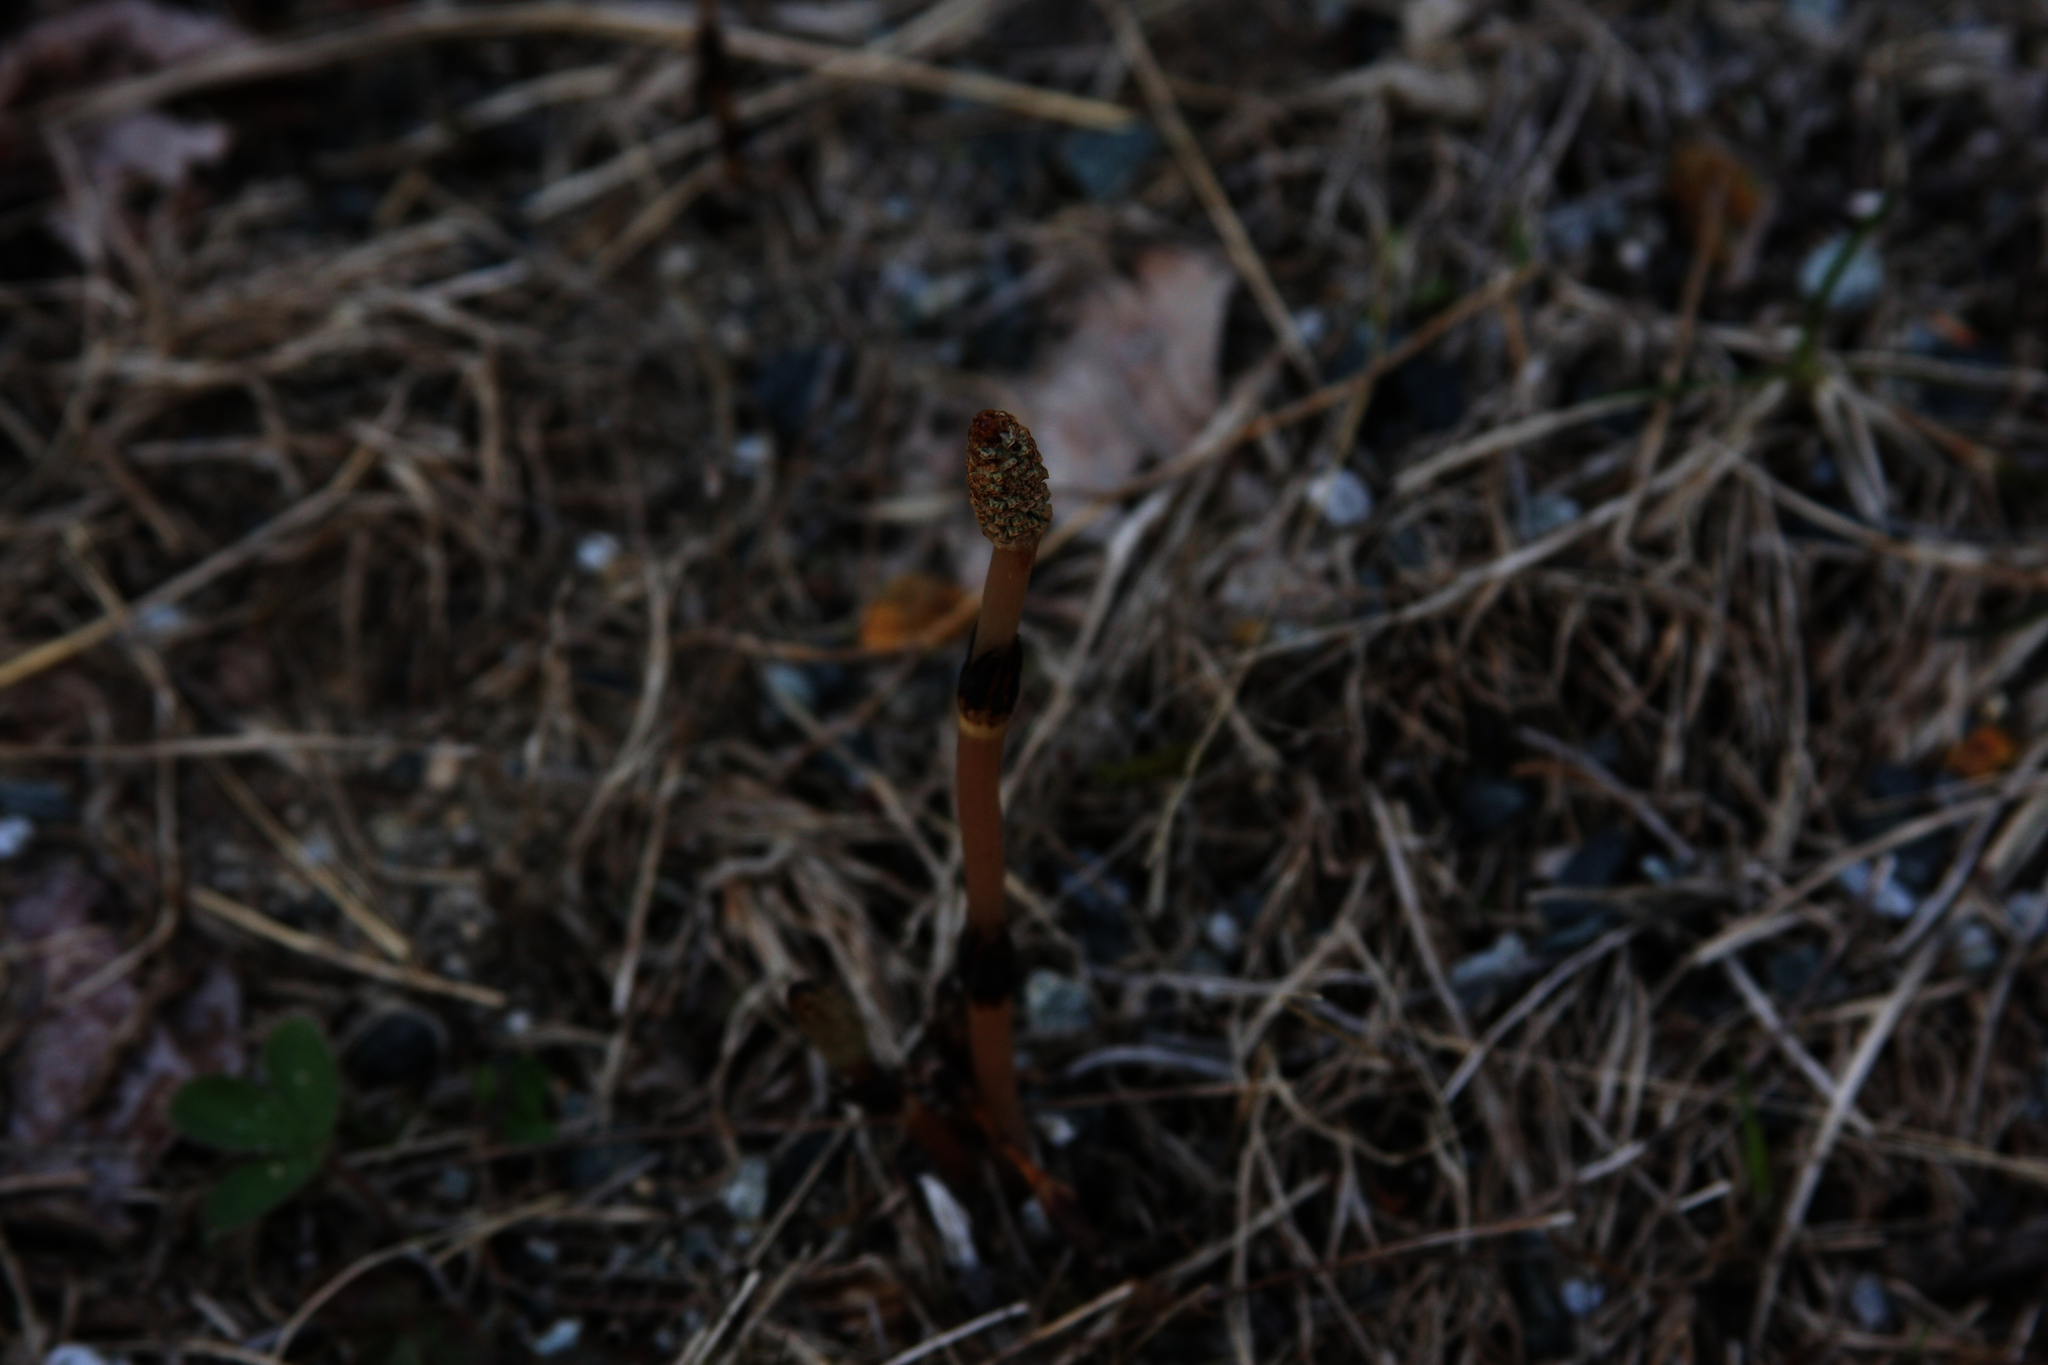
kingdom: Plantae
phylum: Tracheophyta
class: Polypodiopsida
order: Equisetales
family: Equisetaceae
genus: Equisetum
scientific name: Equisetum arvense
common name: Field horsetail
